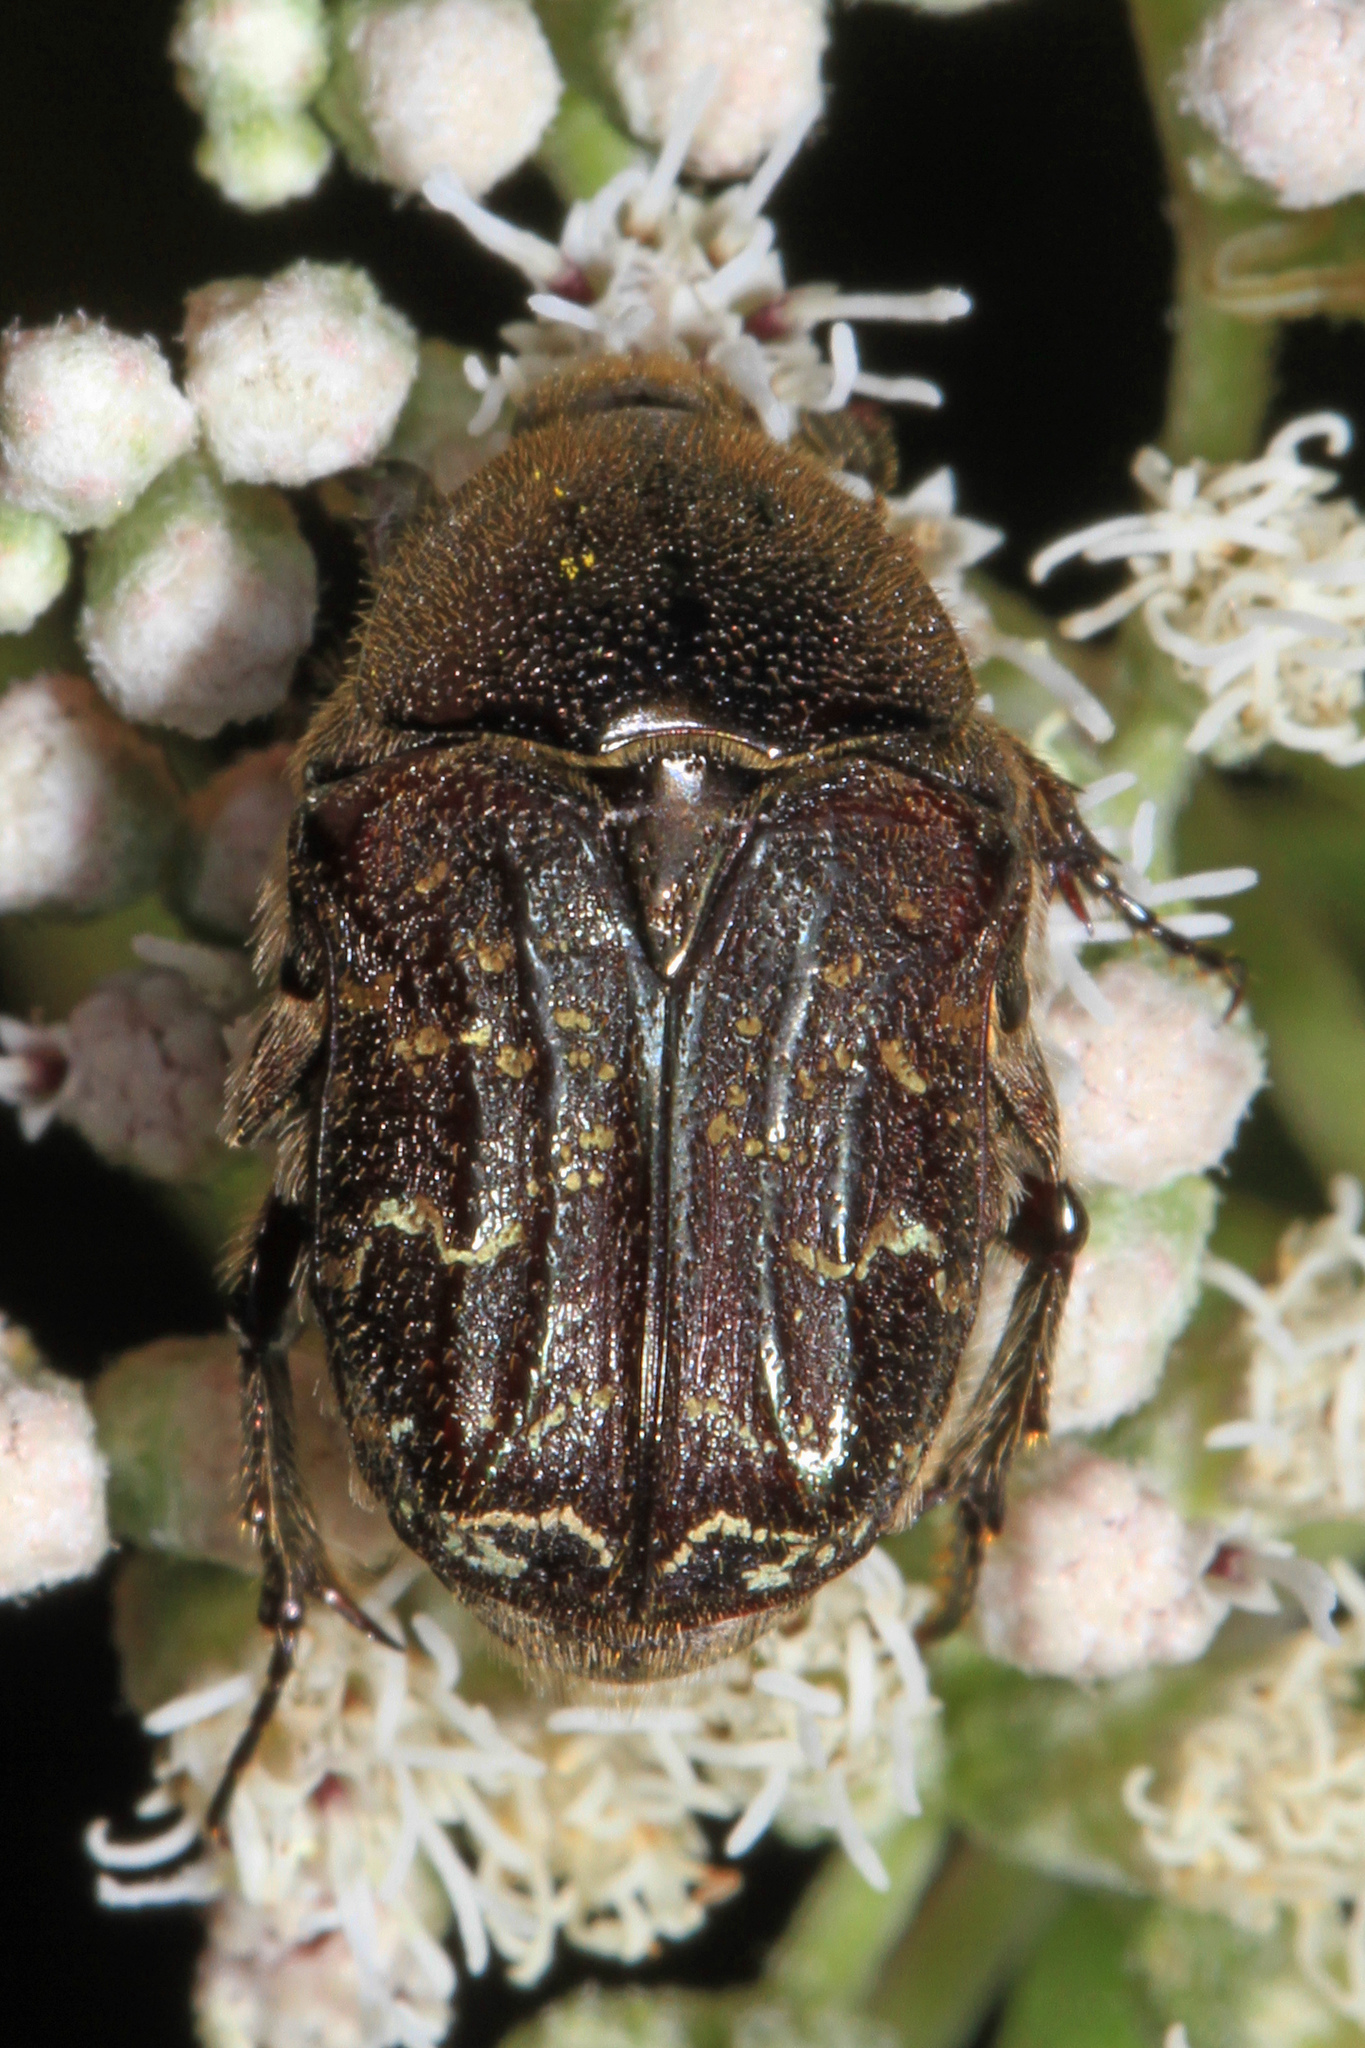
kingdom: Animalia
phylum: Arthropoda
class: Insecta
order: Coleoptera
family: Scarabaeidae
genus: Euphoria
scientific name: Euphoria sepulcralis
